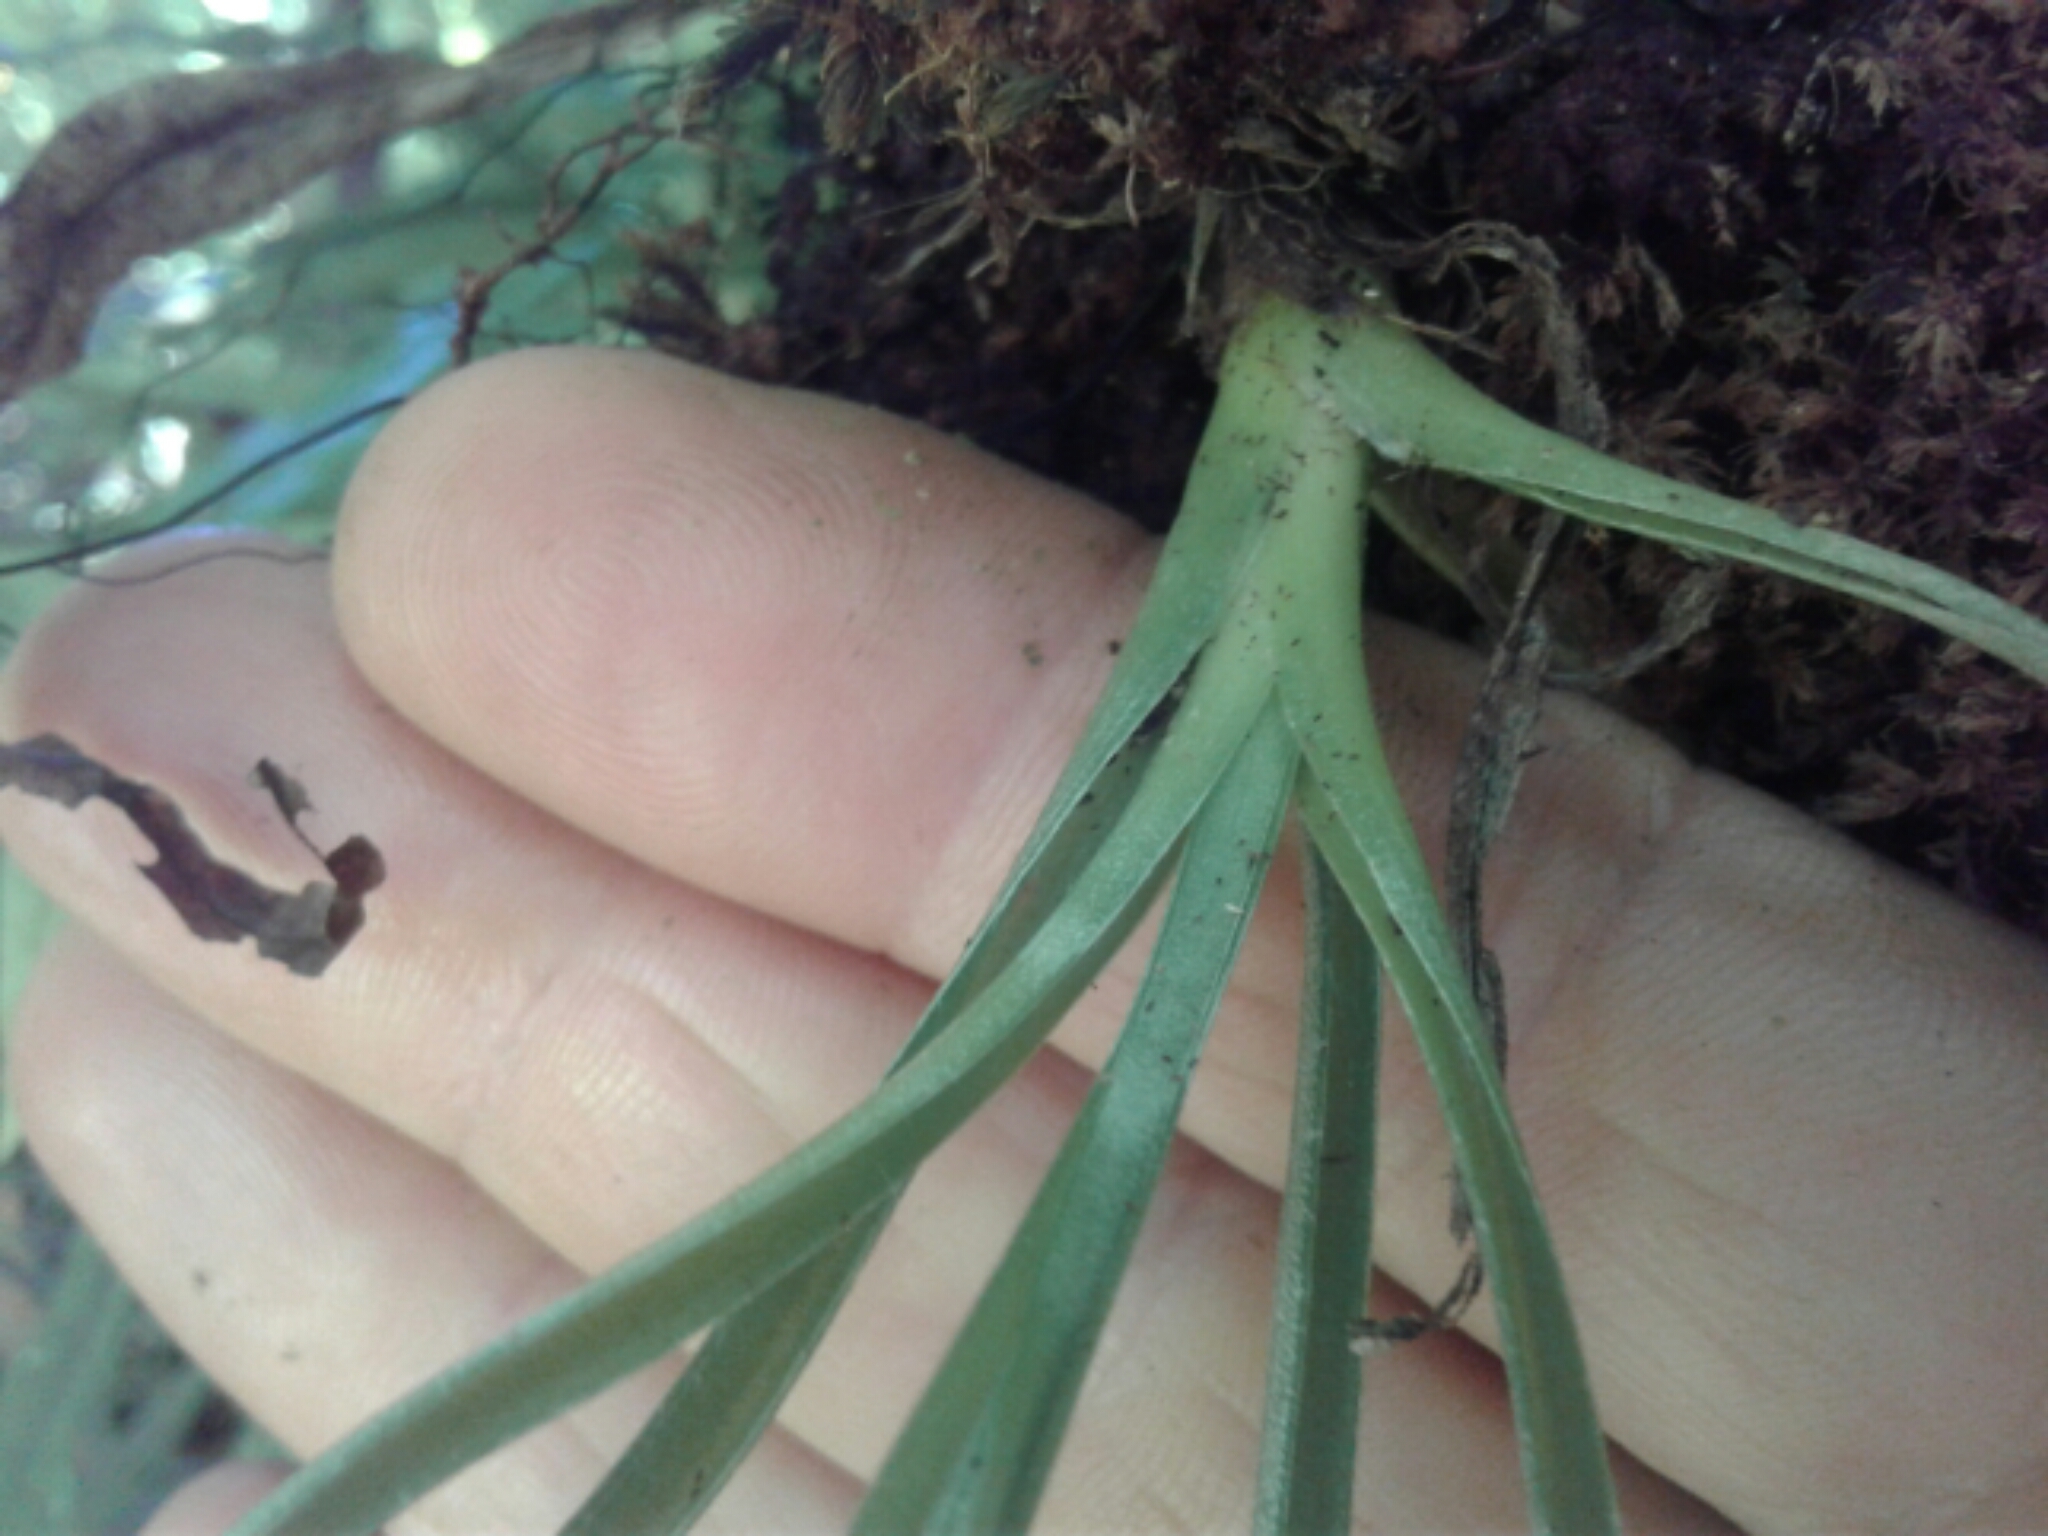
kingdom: Plantae
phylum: Tracheophyta
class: Liliopsida
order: Asparagales
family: Asteliaceae
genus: Astelia
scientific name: Astelia hastata
